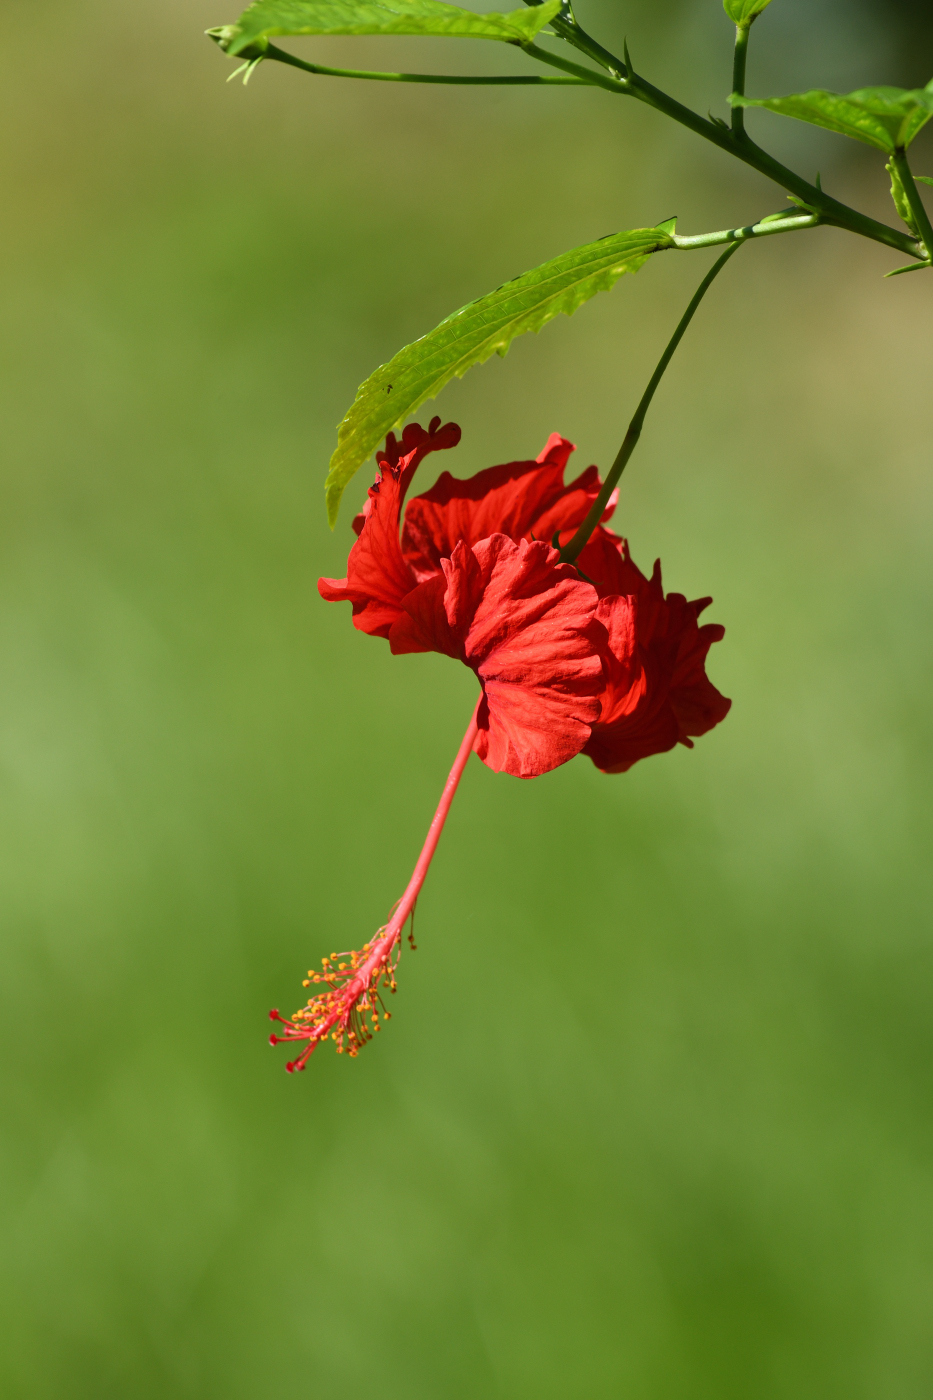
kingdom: Plantae
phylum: Tracheophyta
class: Magnoliopsida
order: Malvales
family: Malvaceae
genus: Hibiscus
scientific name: Hibiscus archeri
